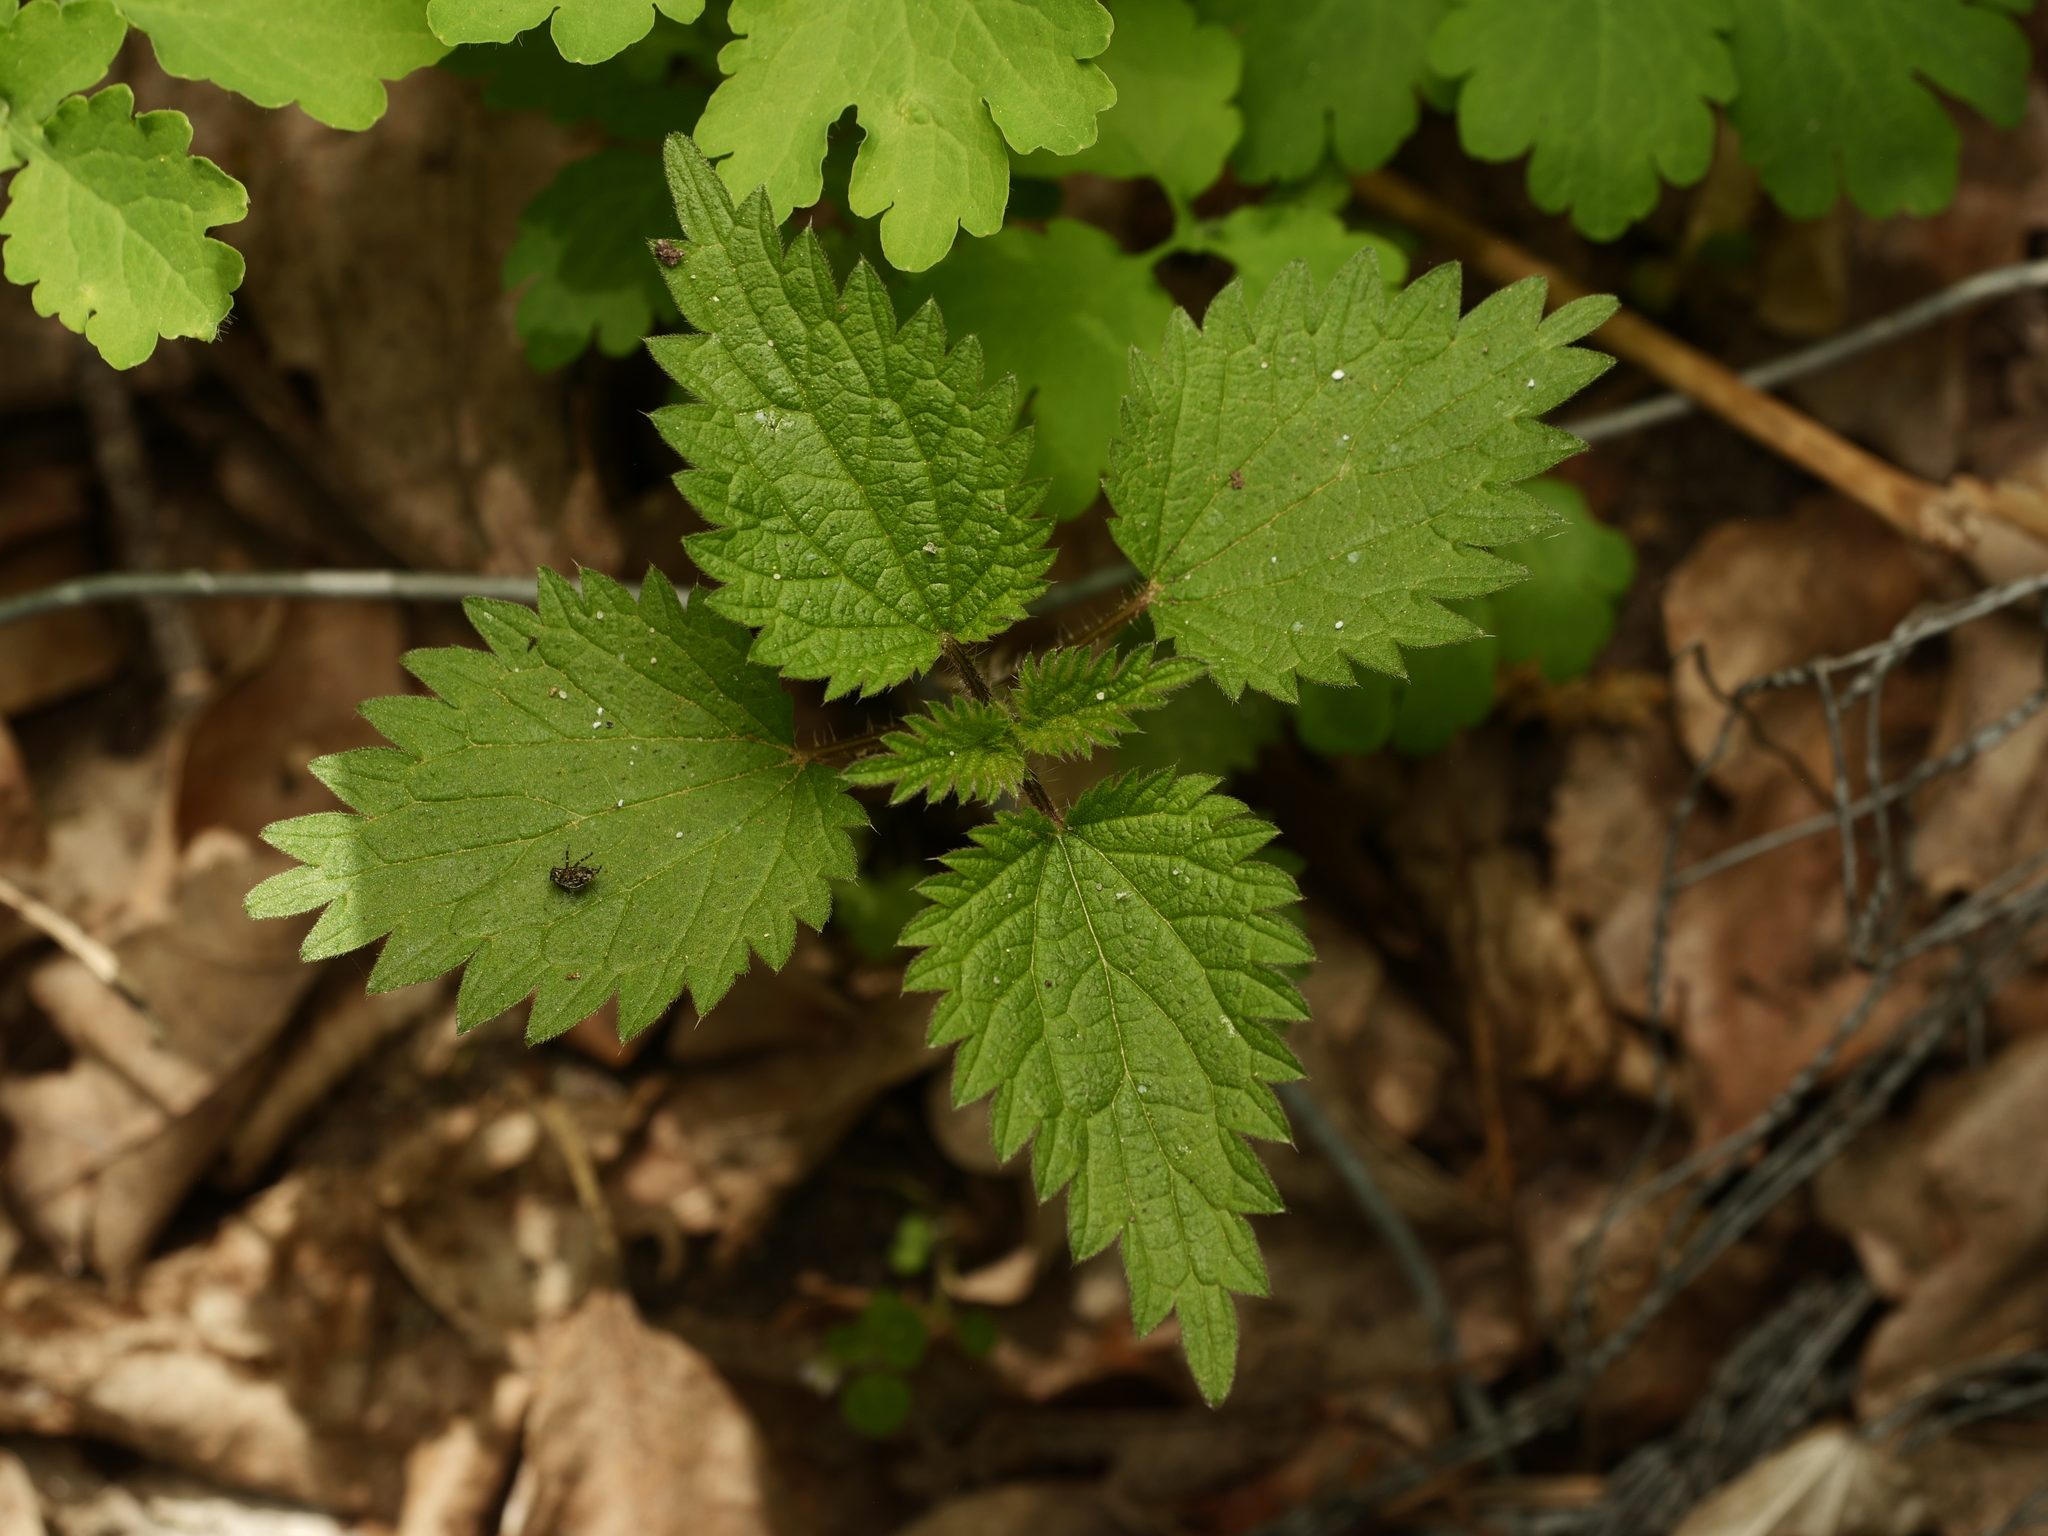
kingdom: Plantae
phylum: Tracheophyta
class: Magnoliopsida
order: Rosales
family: Urticaceae
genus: Urtica
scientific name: Urtica dioica
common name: Common nettle
